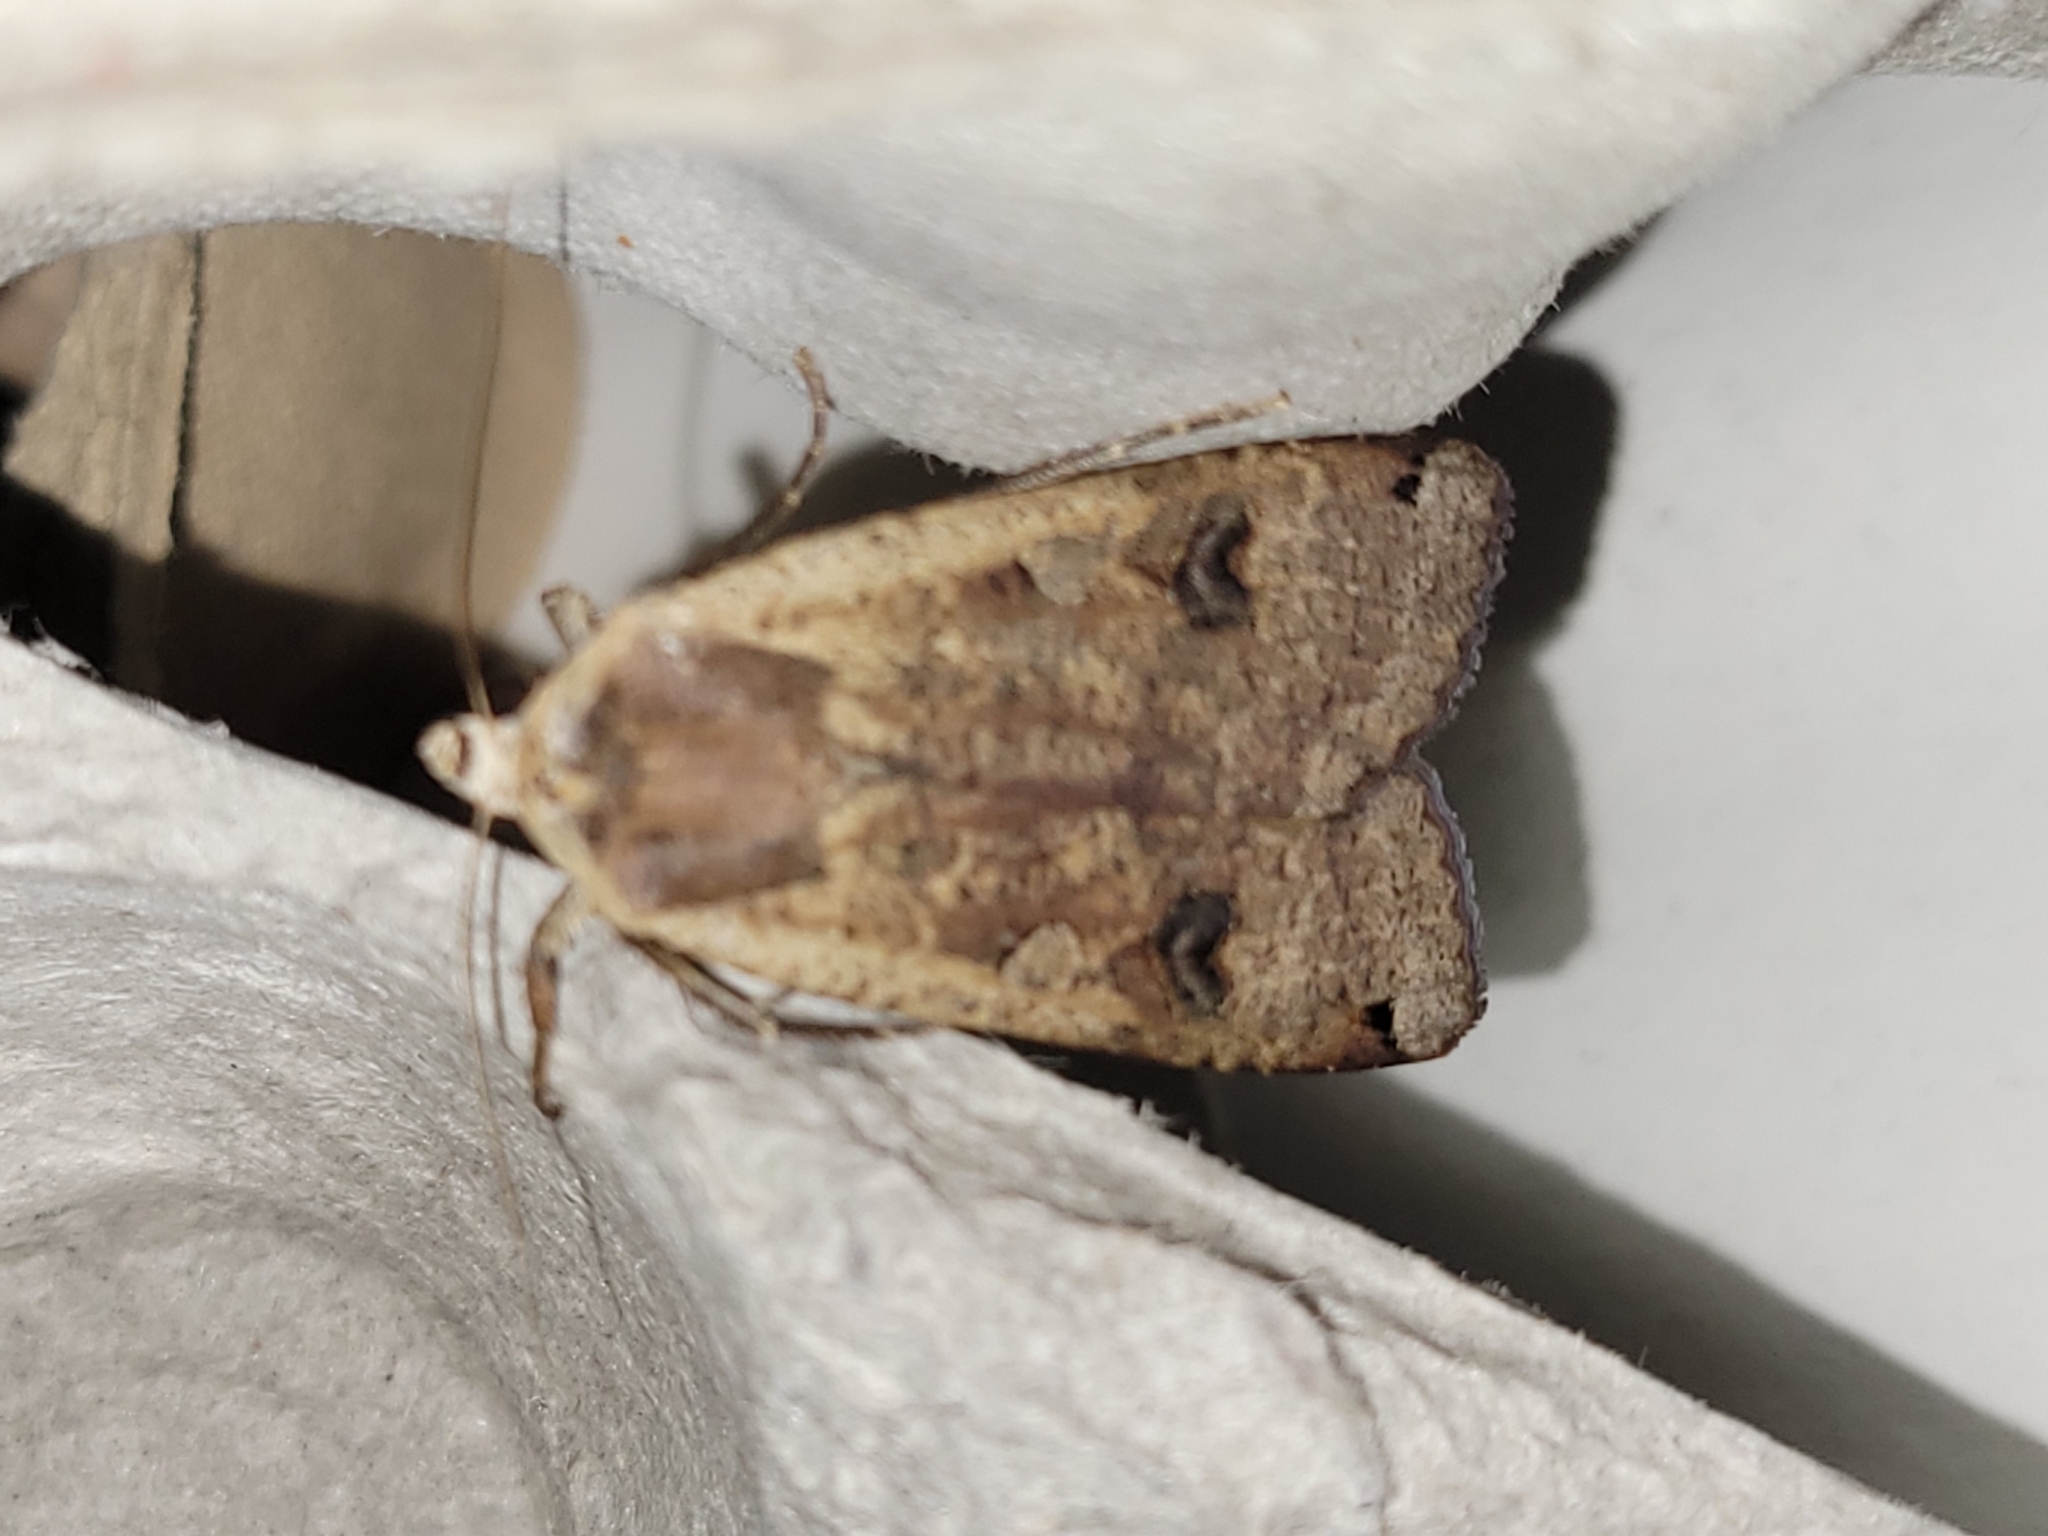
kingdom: Animalia
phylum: Arthropoda
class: Insecta
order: Lepidoptera
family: Noctuidae
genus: Noctua
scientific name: Noctua pronuba
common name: Large yellow underwing
